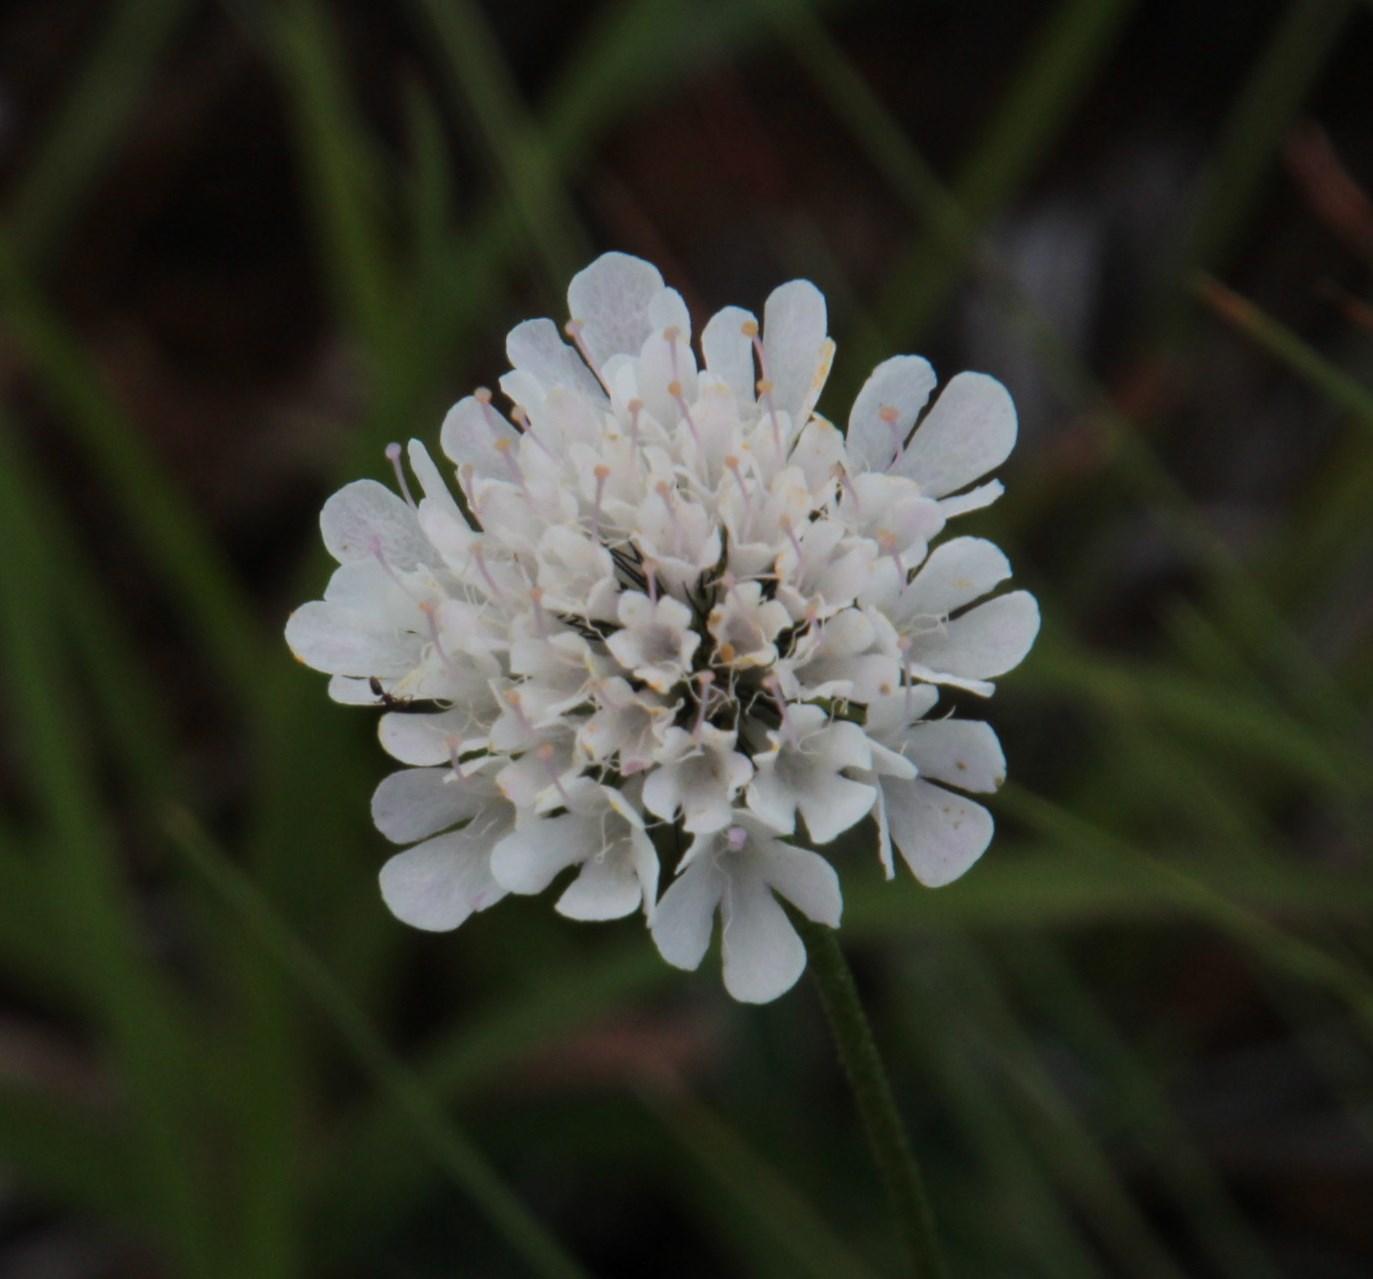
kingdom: Plantae
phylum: Tracheophyta
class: Magnoliopsida
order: Dipsacales
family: Caprifoliaceae
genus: Scabiosa
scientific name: Scabiosa columbaria
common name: Small scabious
